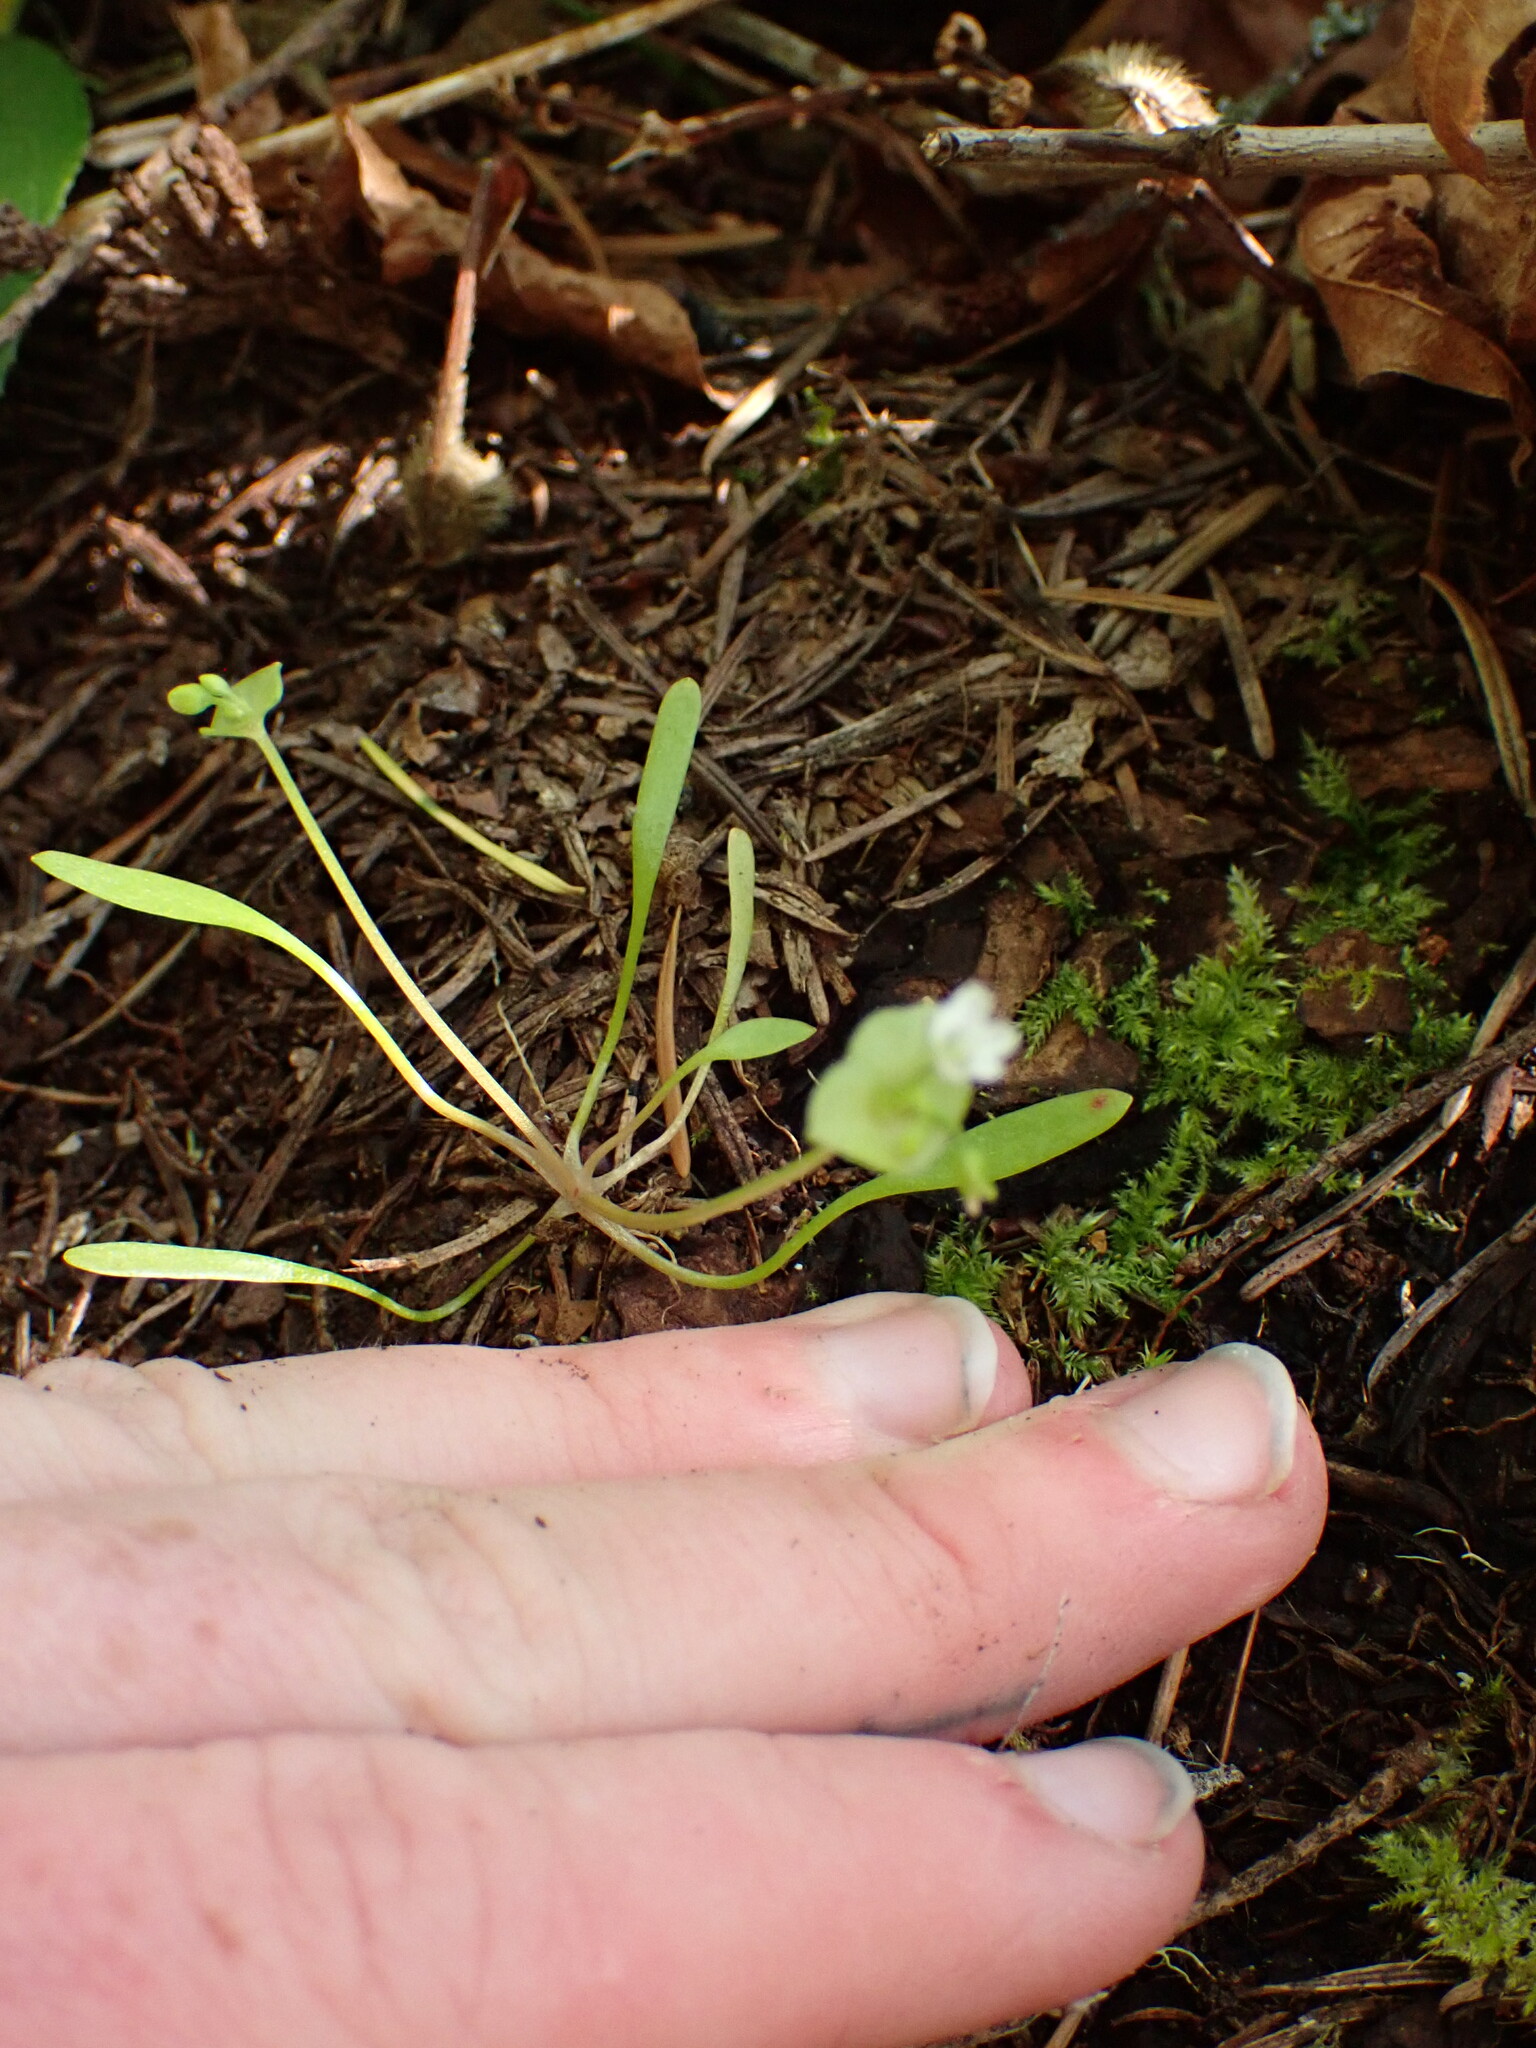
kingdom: Plantae
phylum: Tracheophyta
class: Magnoliopsida
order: Caryophyllales
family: Montiaceae
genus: Claytonia
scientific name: Claytonia parviflora
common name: Indian-lettuce
